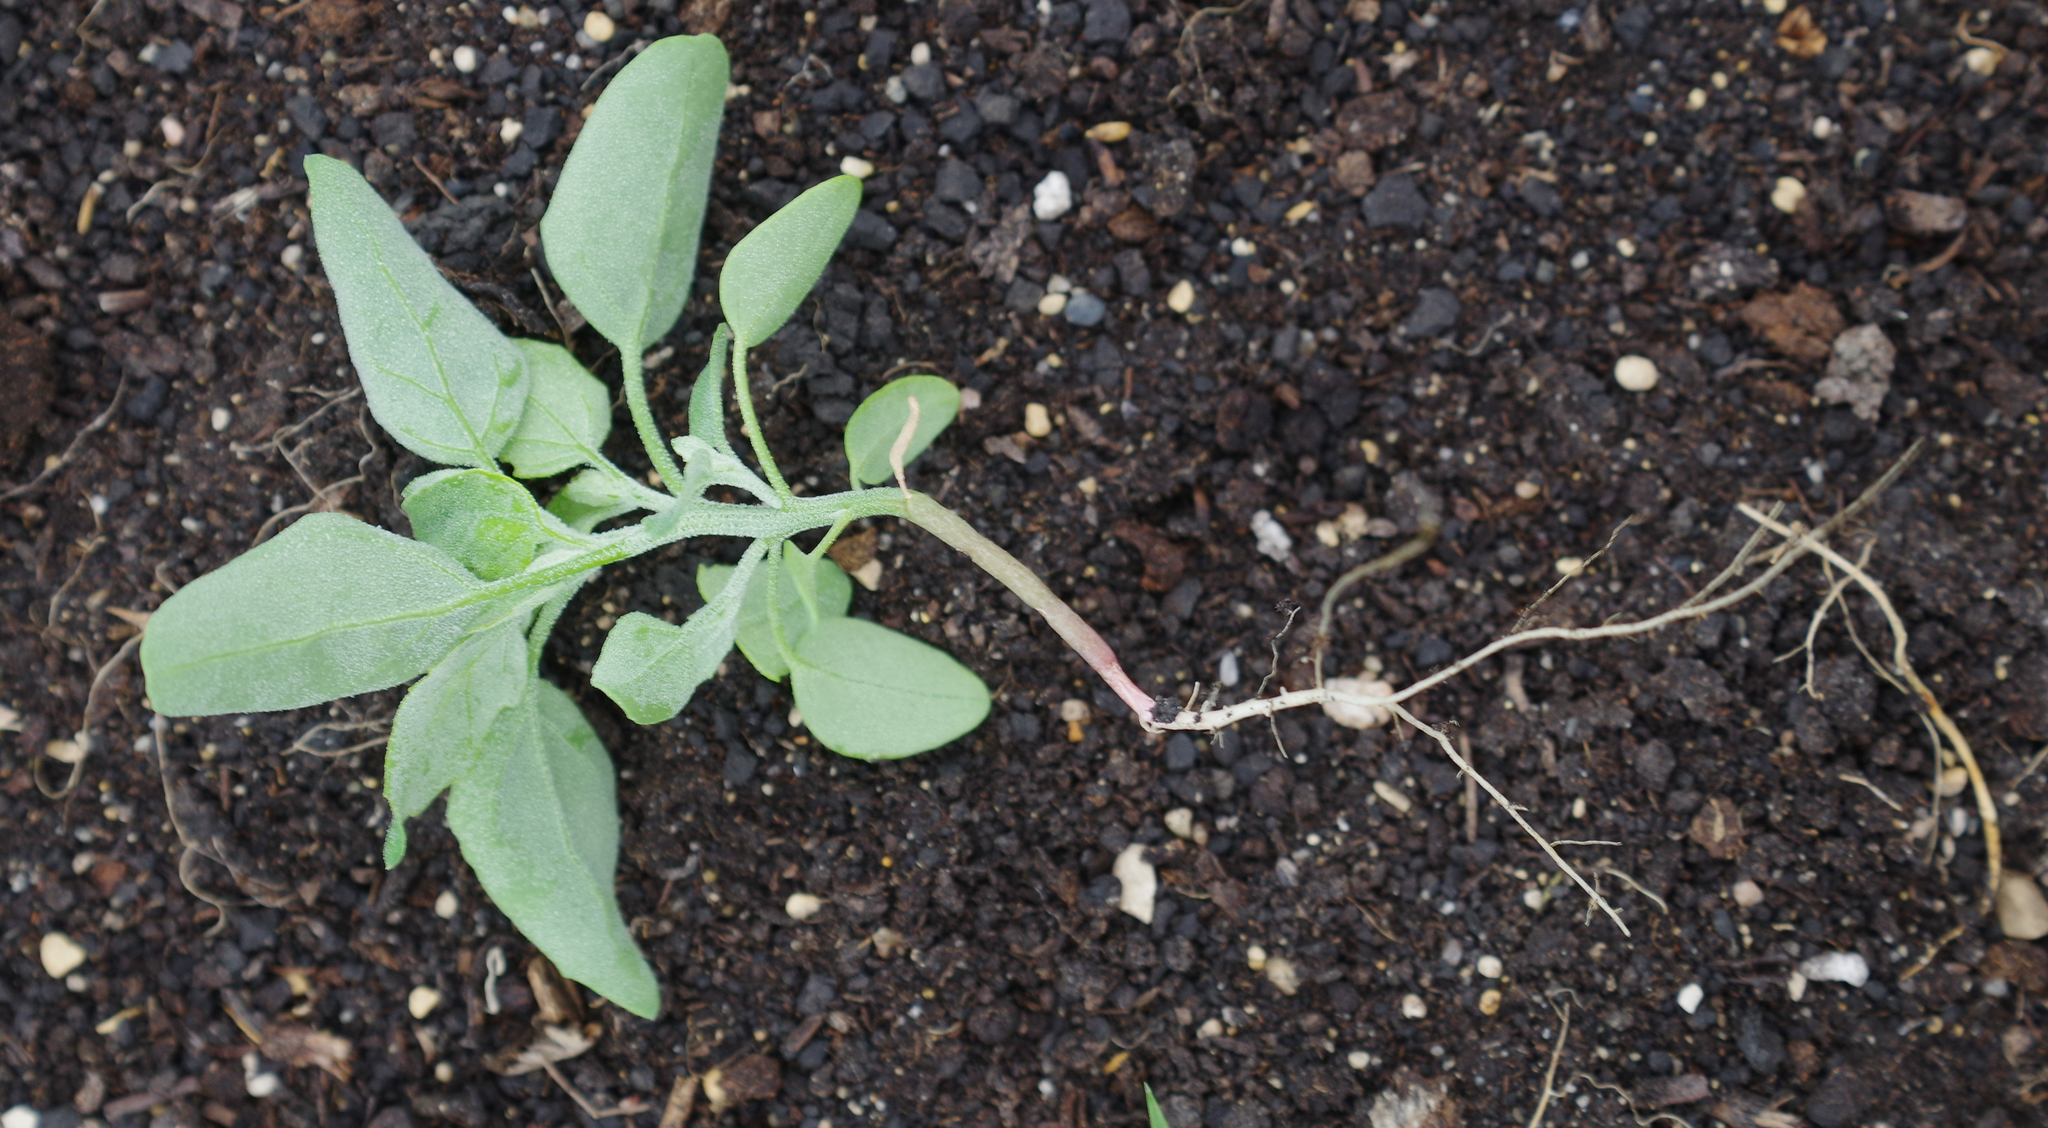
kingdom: Plantae
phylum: Tracheophyta
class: Magnoliopsida
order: Caryophyllales
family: Amaranthaceae
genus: Chenopodium
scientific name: Chenopodium album
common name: Fat-hen
